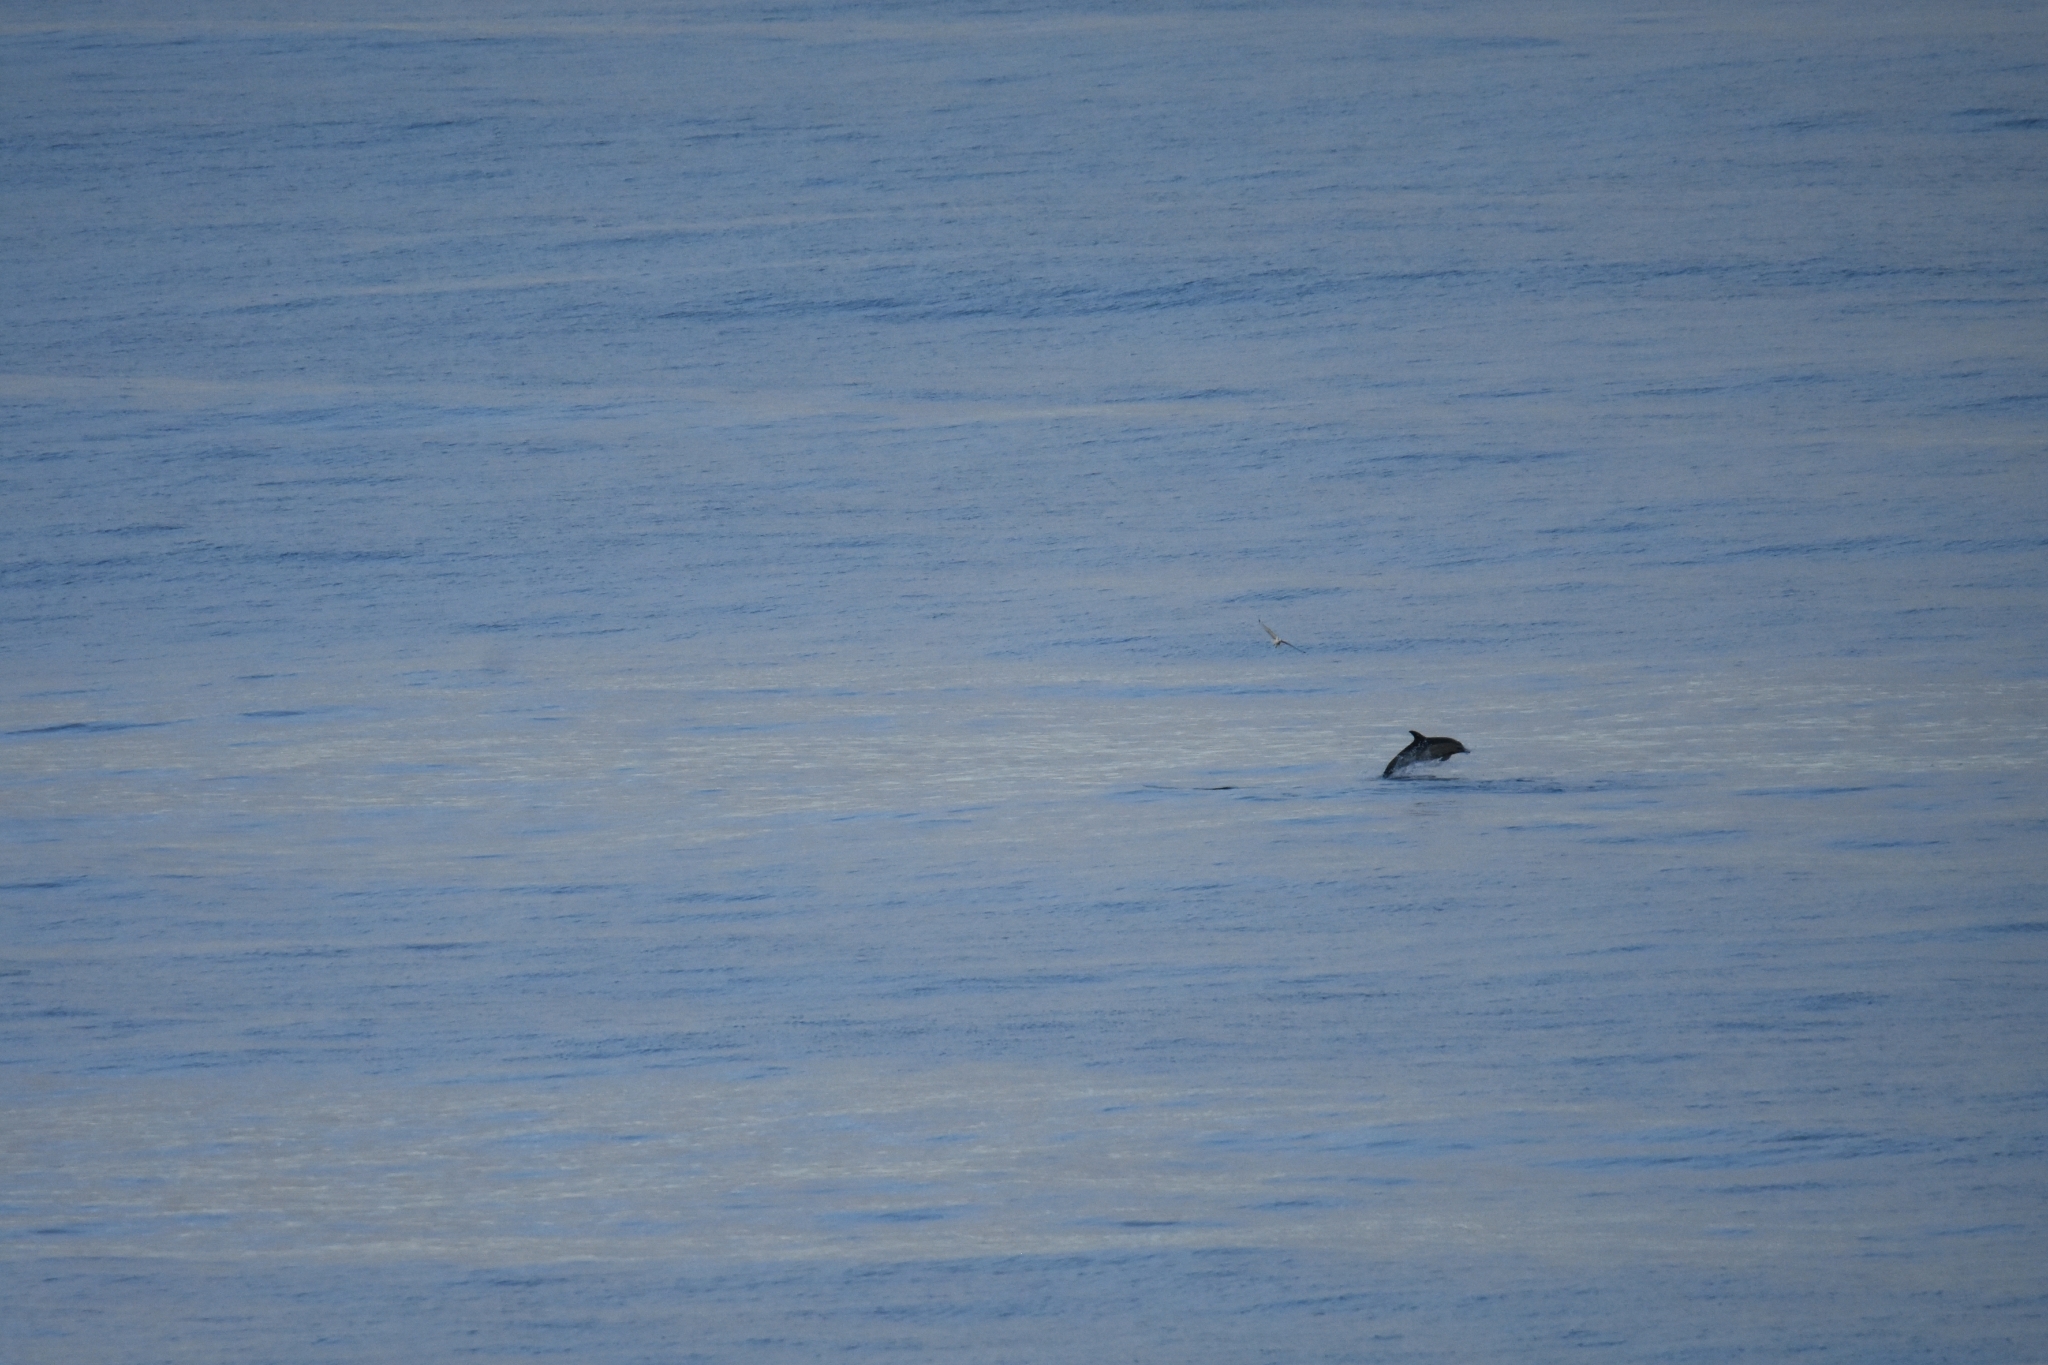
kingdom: Animalia
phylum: Chordata
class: Mammalia
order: Cetacea
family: Delphinidae
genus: Delphinus
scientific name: Delphinus delphis
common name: Common dolphin
